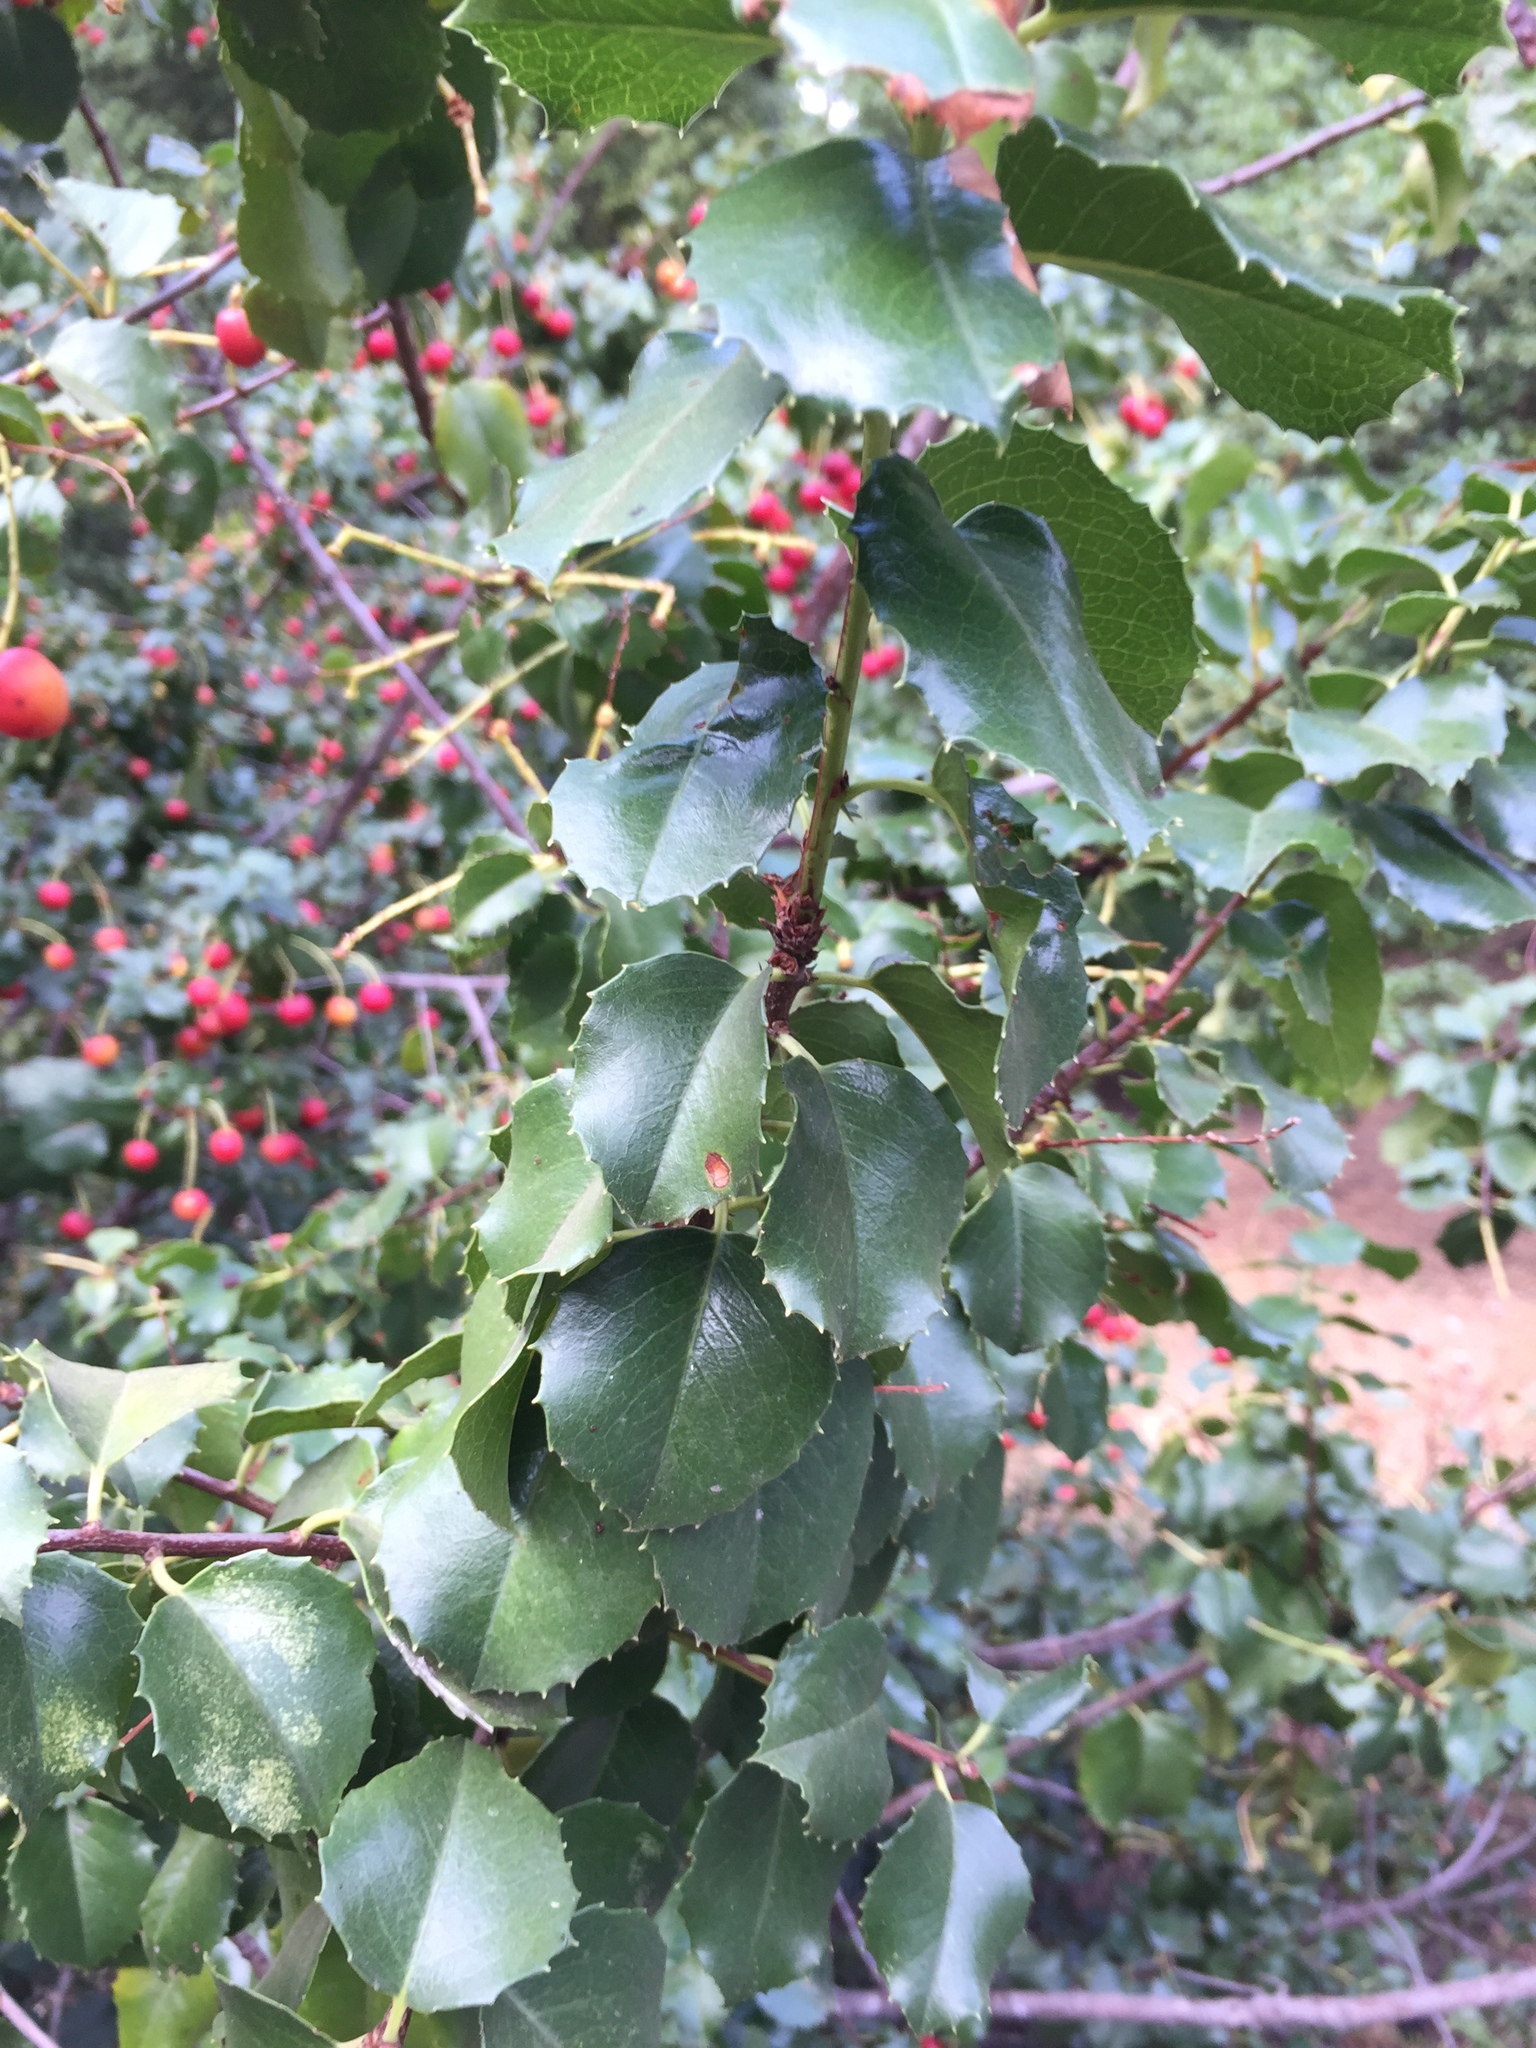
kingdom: Plantae
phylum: Tracheophyta
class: Magnoliopsida
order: Rosales
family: Rosaceae
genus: Prunus
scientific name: Prunus ilicifolia
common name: Hollyleaf cherry
